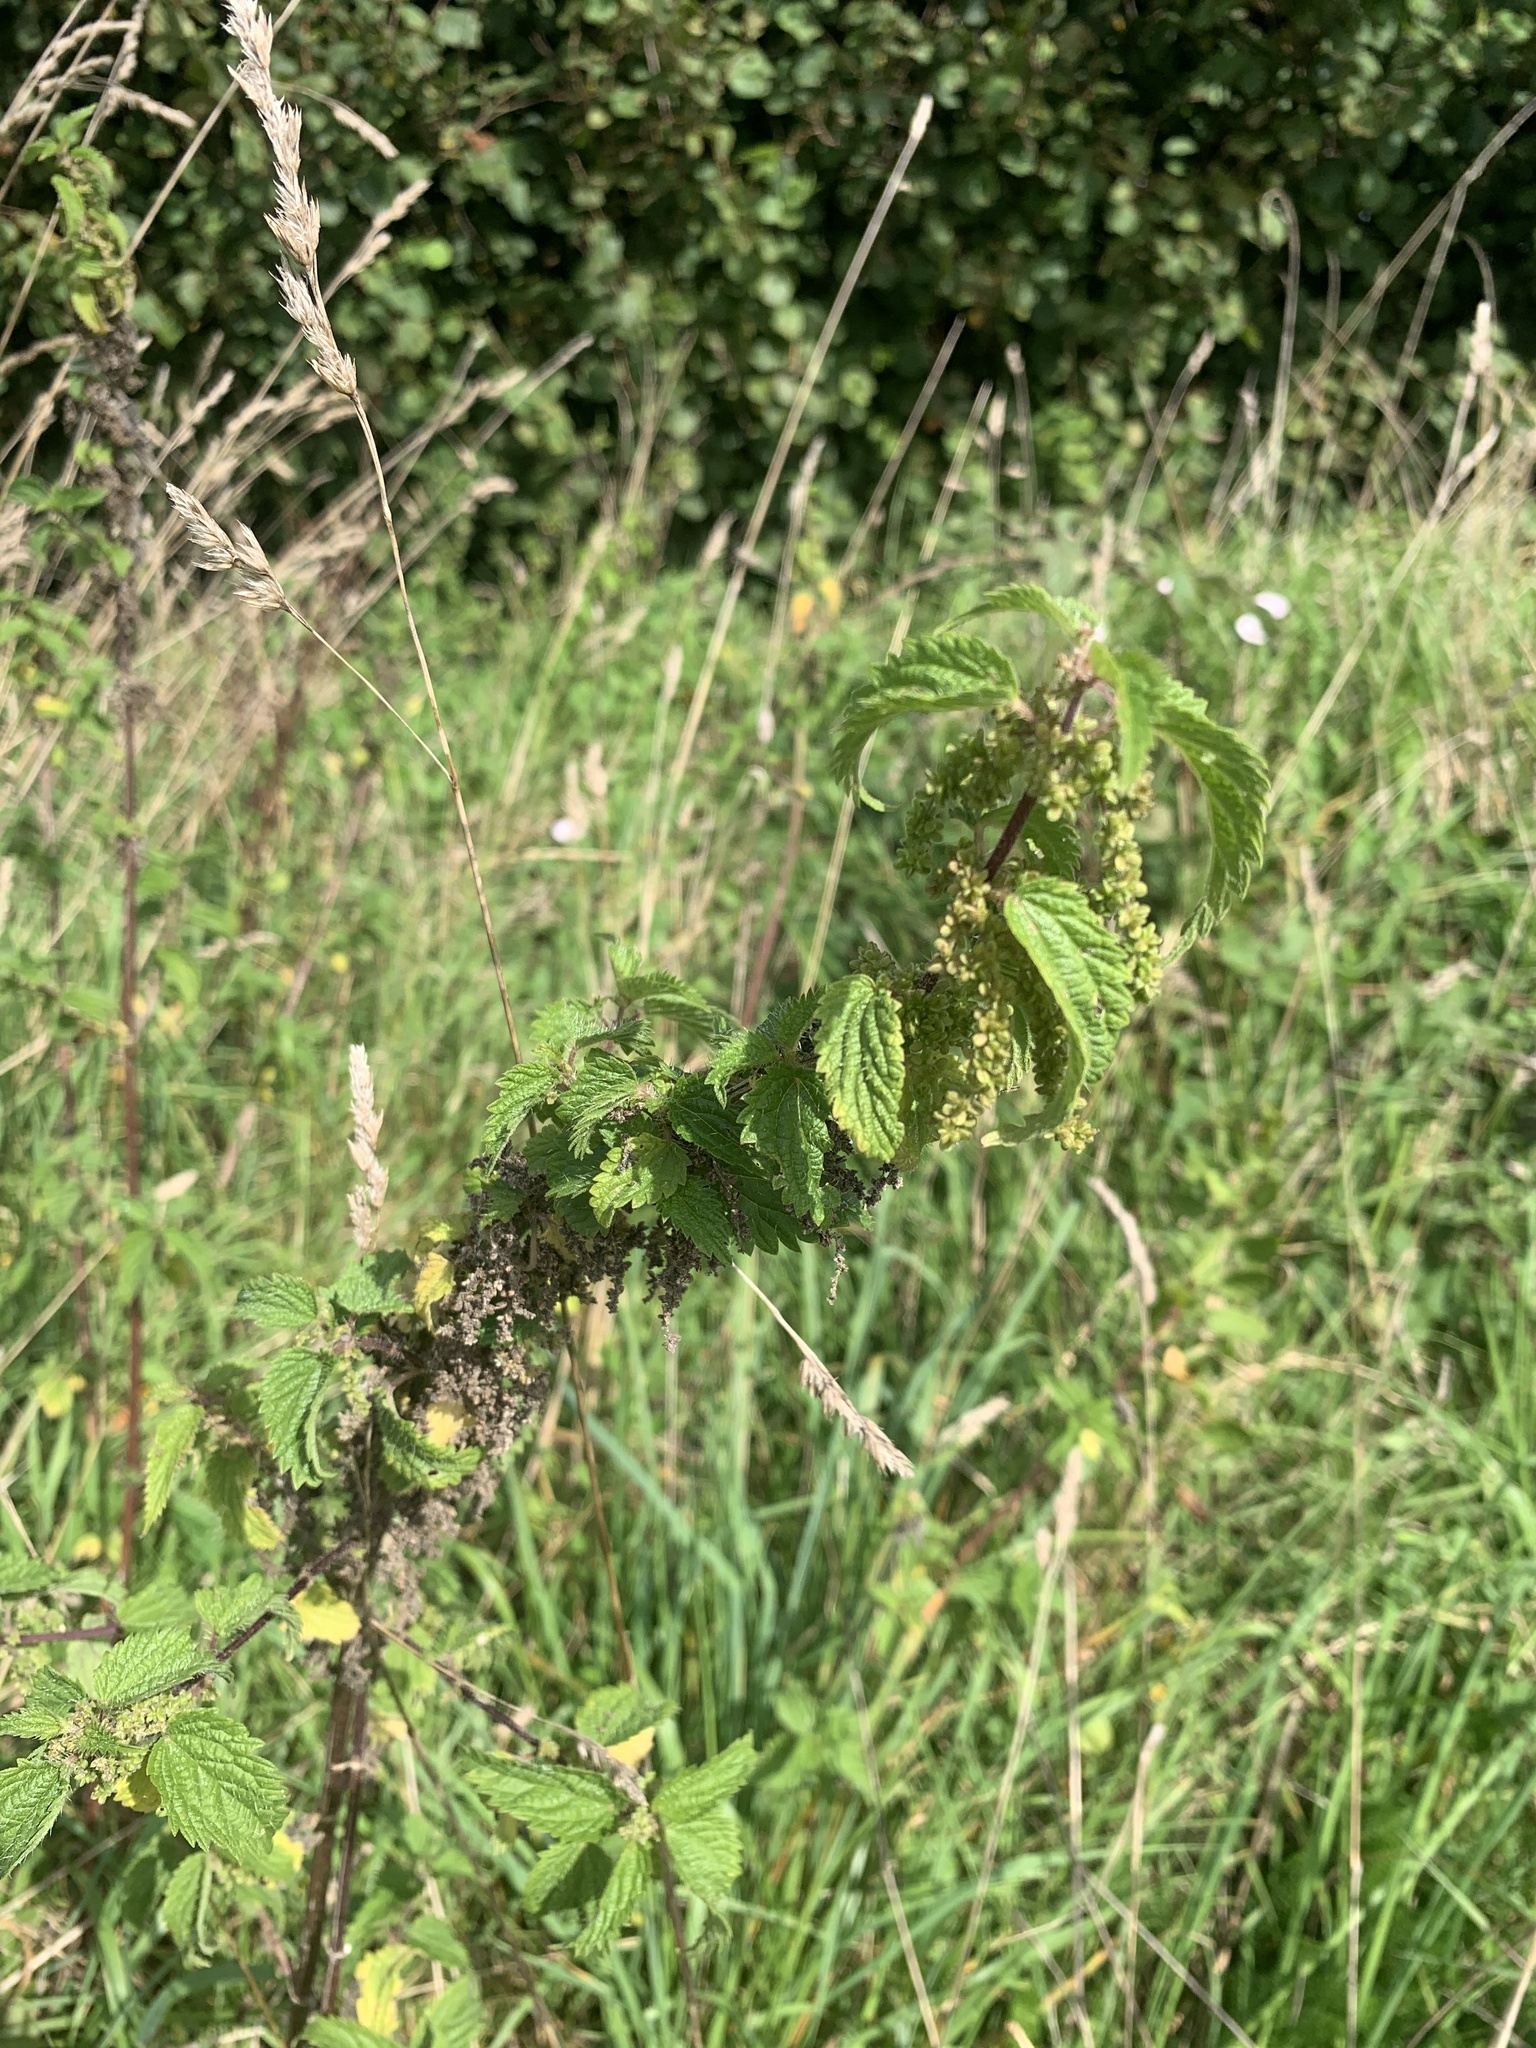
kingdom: Plantae
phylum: Tracheophyta
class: Magnoliopsida
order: Rosales
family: Urticaceae
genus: Urtica
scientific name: Urtica dioica
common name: Common nettle
